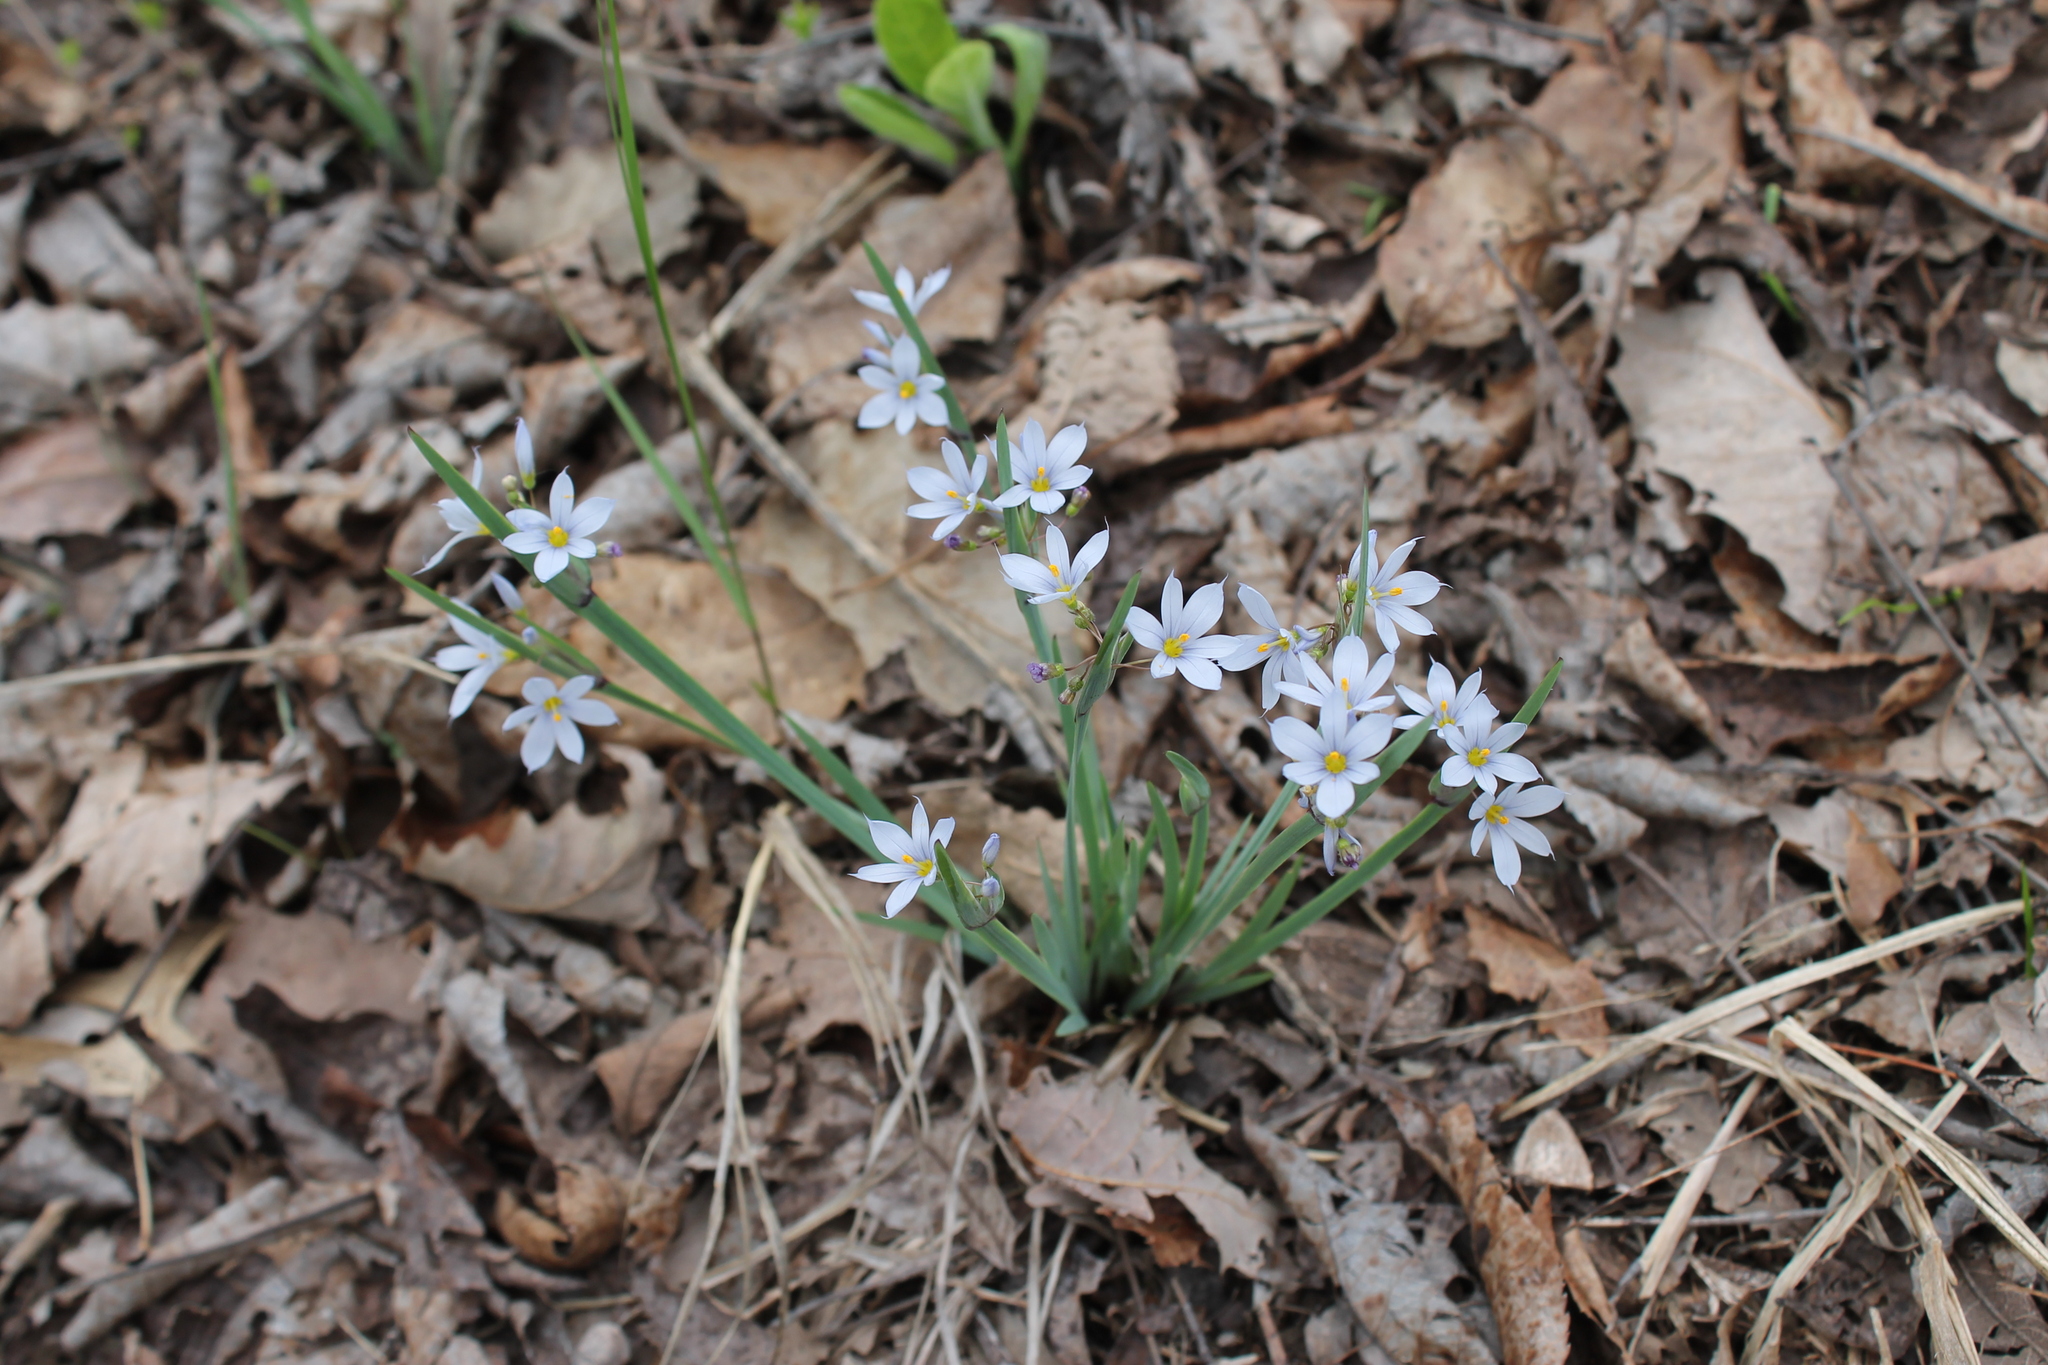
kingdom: Plantae
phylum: Tracheophyta
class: Liliopsida
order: Asparagales
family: Iridaceae
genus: Sisyrinchium
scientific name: Sisyrinchium albidum
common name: Pale blue-eyed-grass
